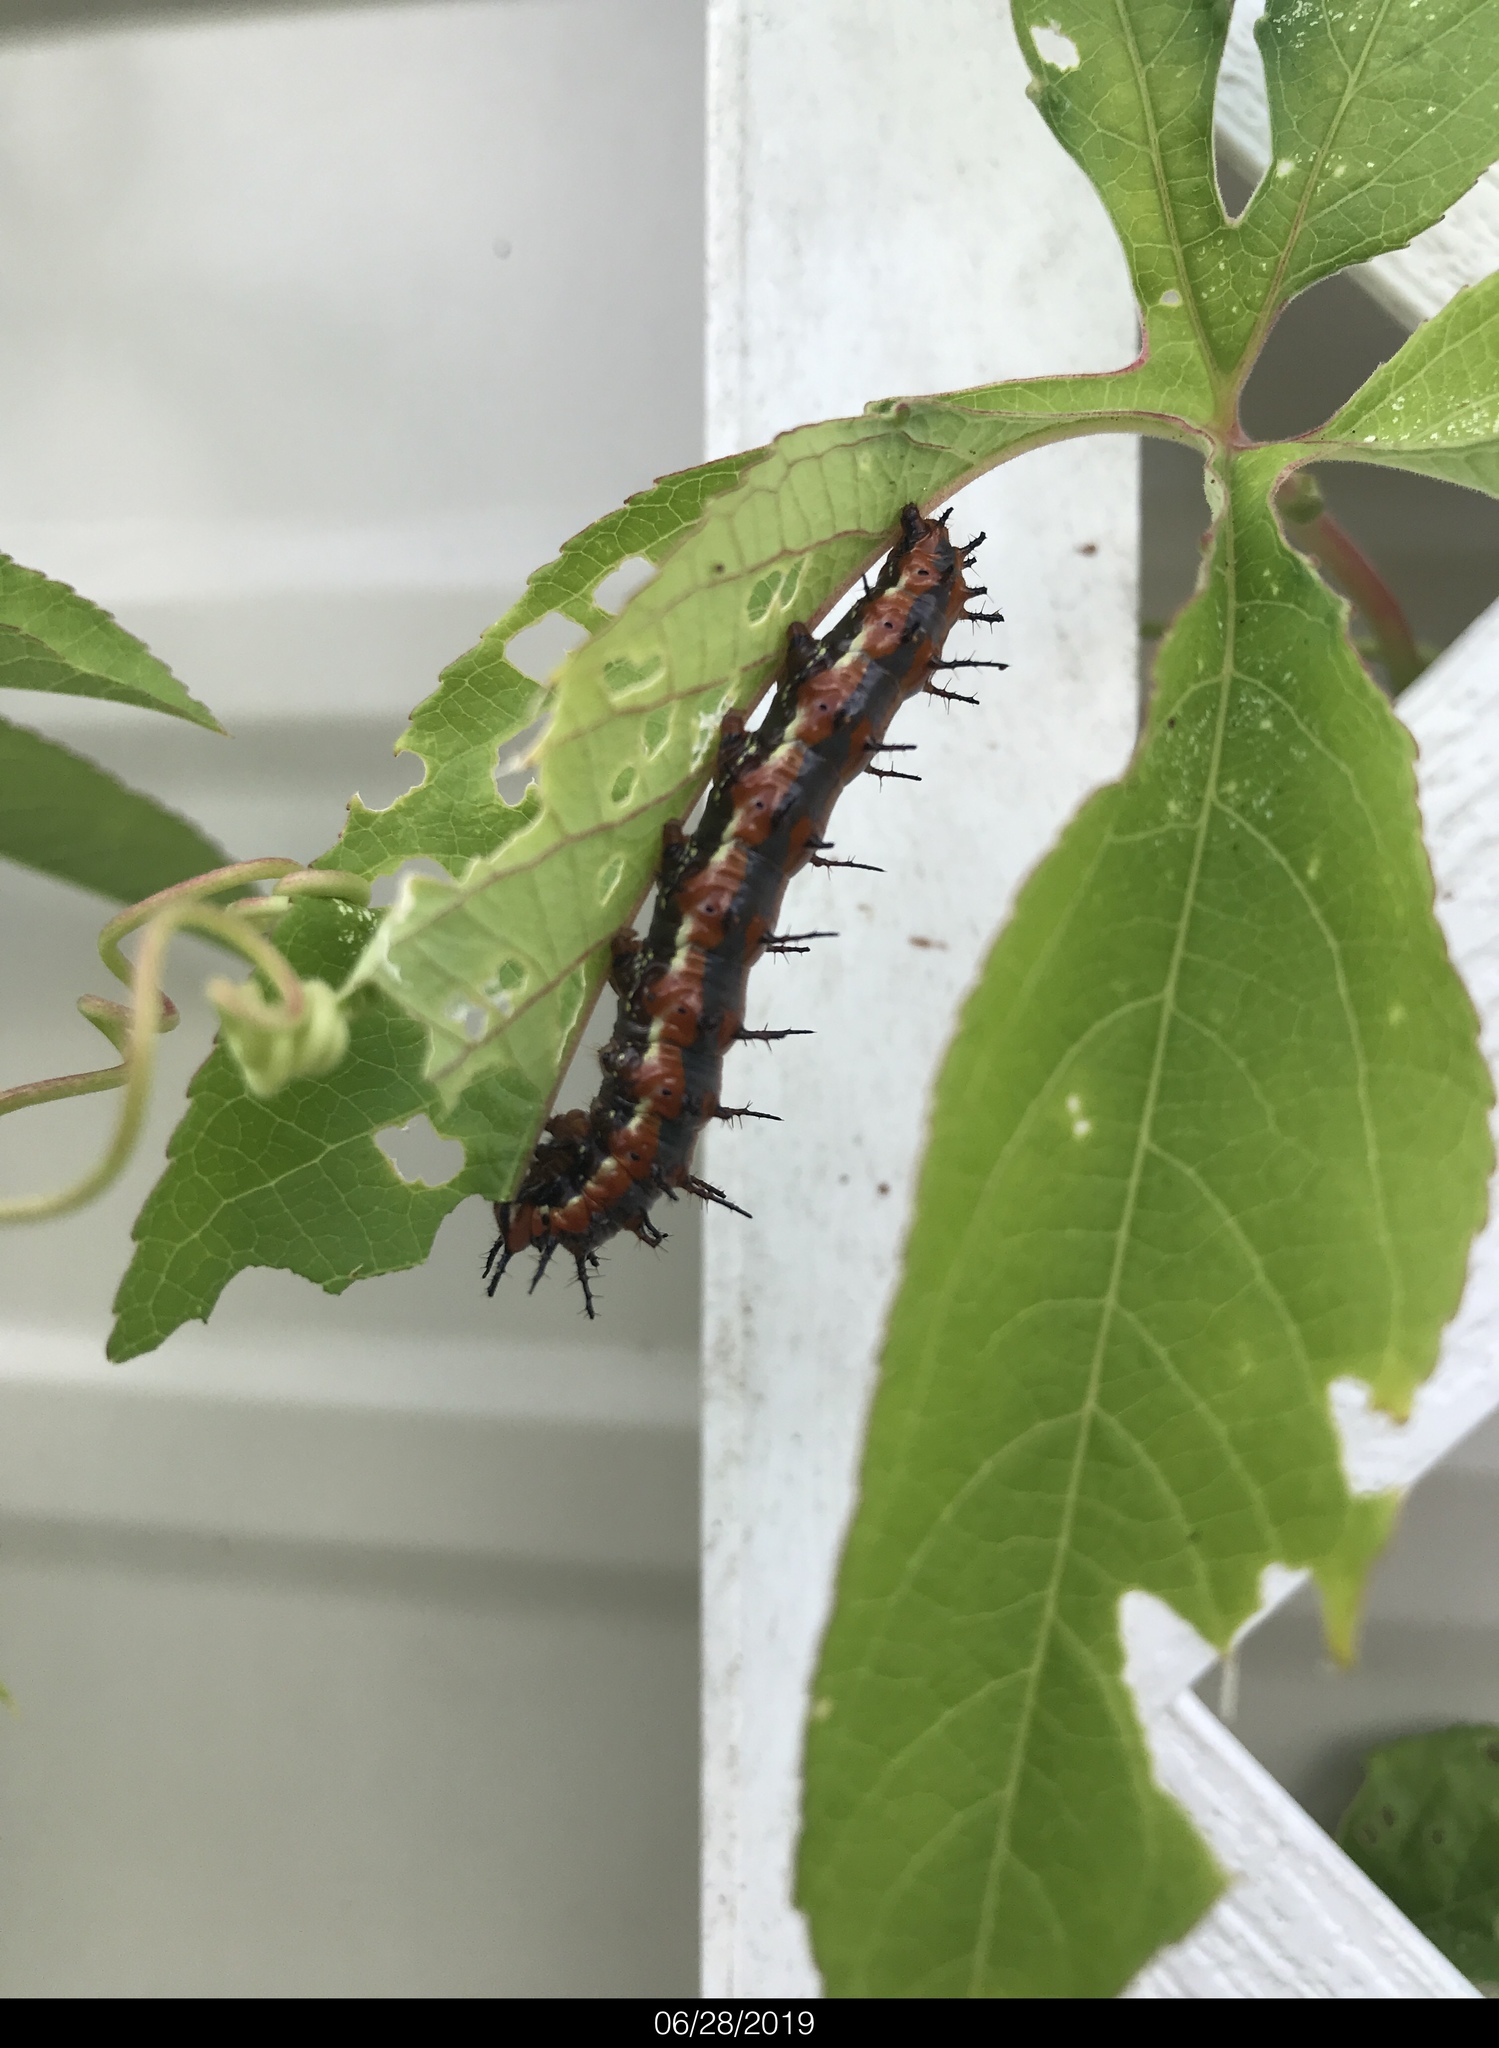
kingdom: Animalia
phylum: Arthropoda
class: Insecta
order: Lepidoptera
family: Nymphalidae
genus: Dione
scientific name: Dione vanillae
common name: Gulf fritillary
